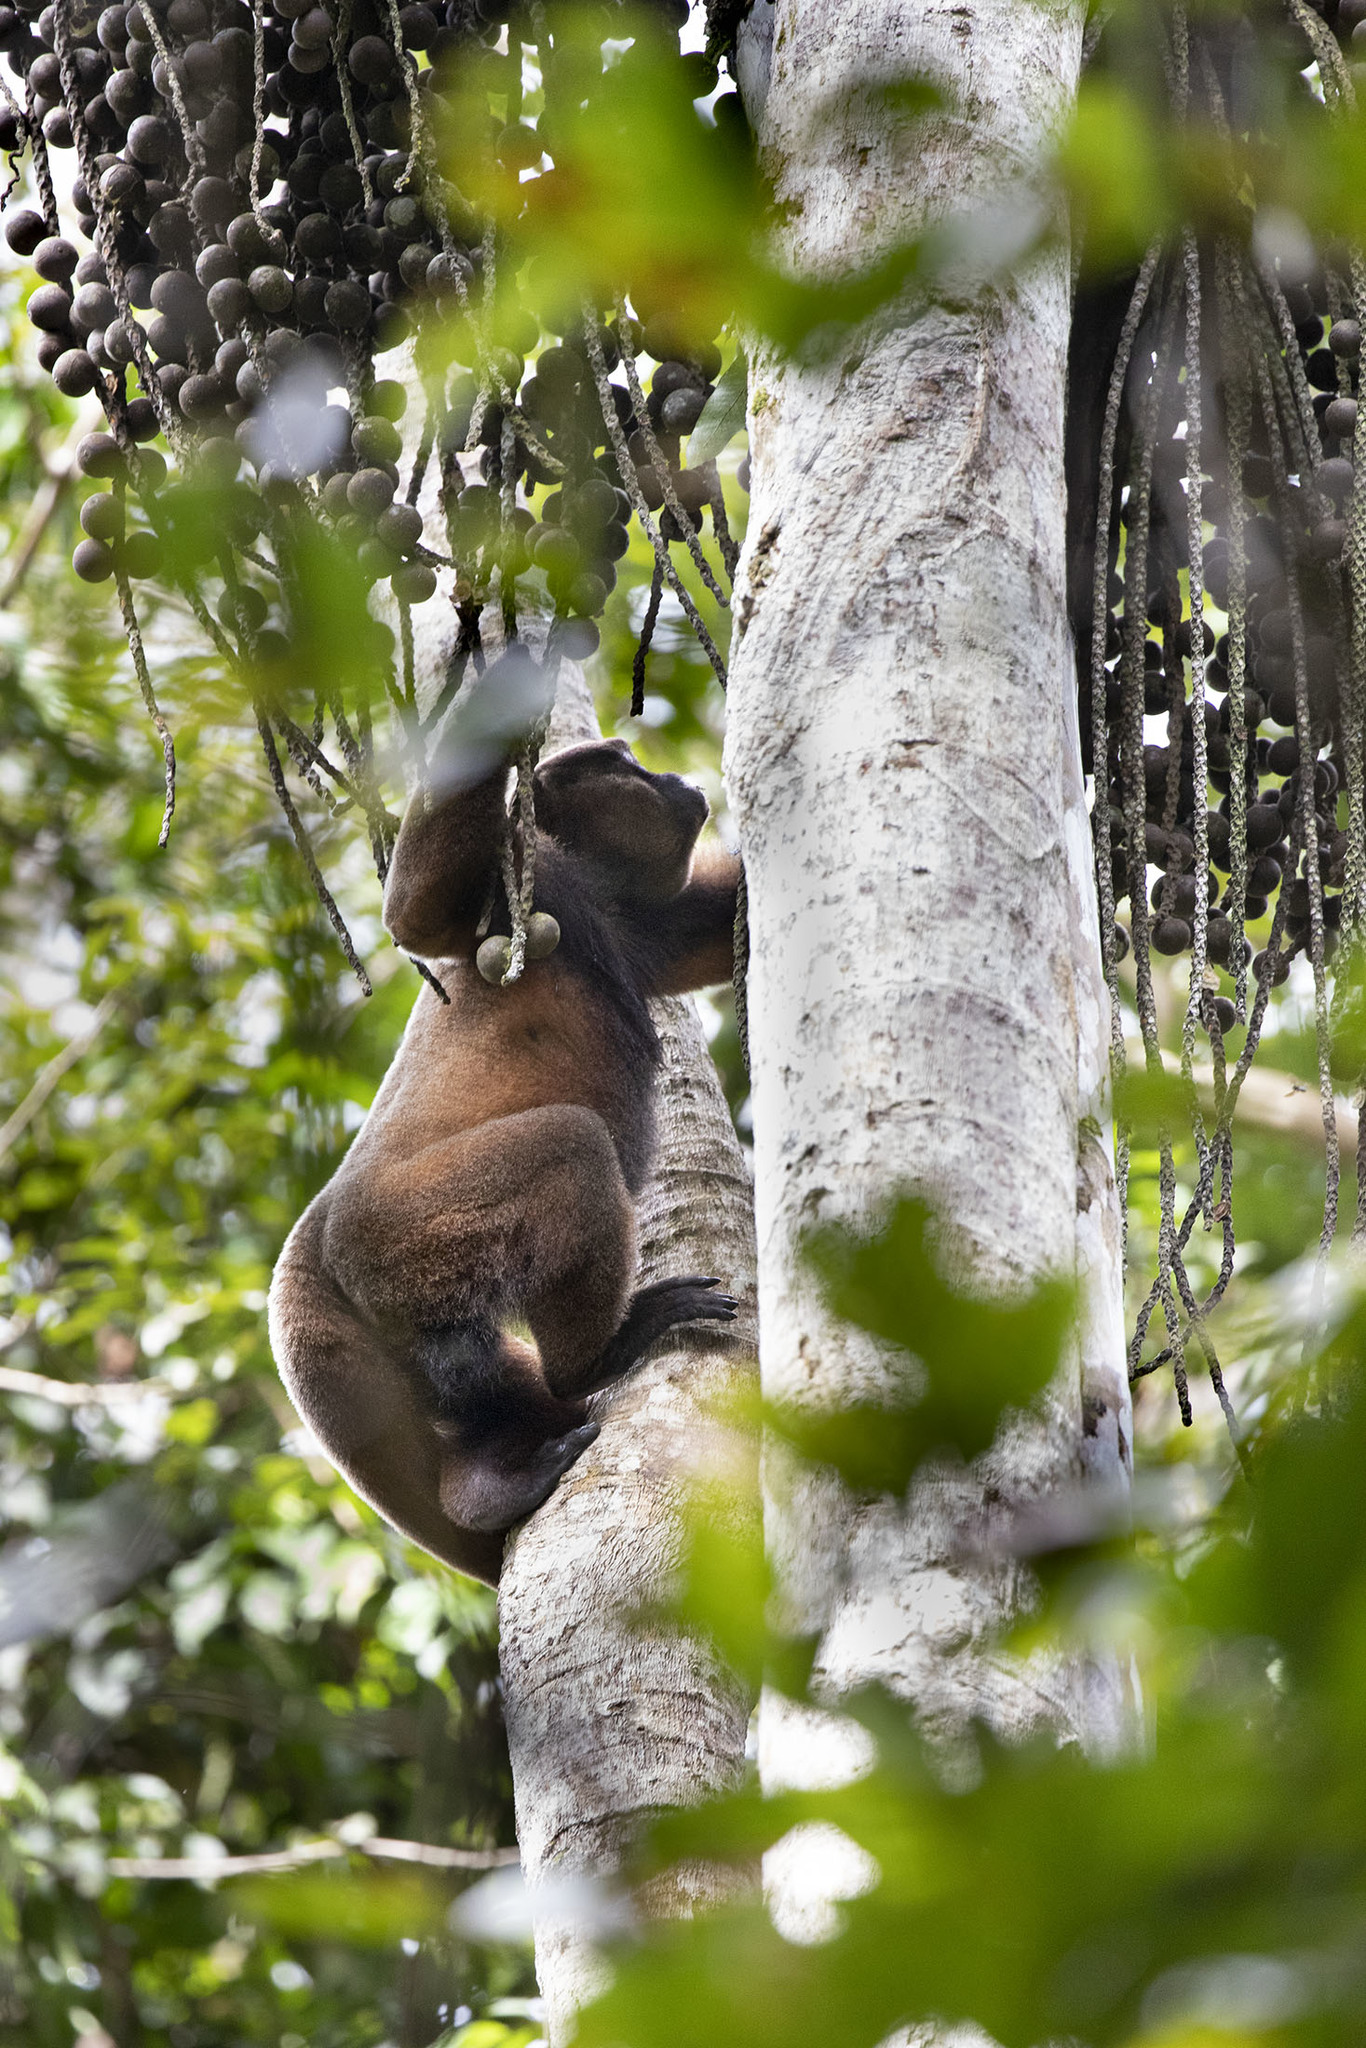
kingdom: Animalia
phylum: Chordata
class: Mammalia
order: Primates
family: Atelidae
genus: Lagothrix
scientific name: Lagothrix lagothricha
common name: Brown woolly monkey
